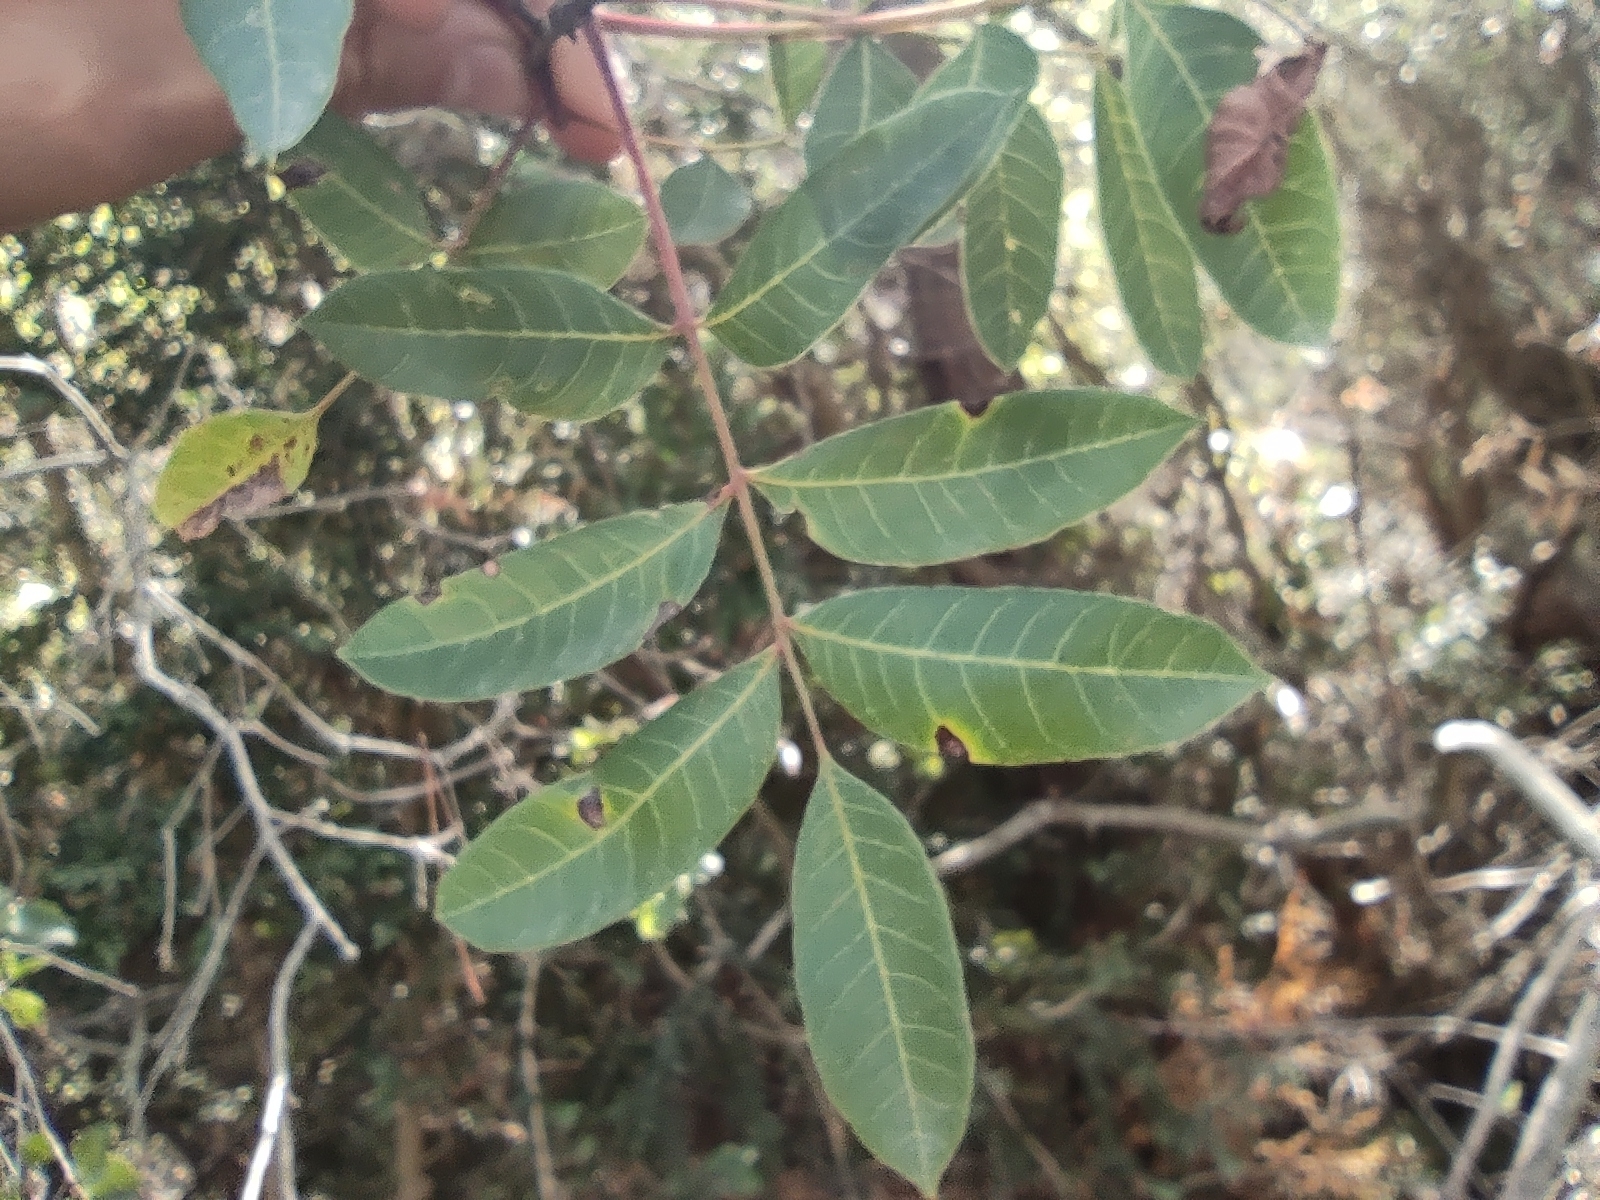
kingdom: Plantae
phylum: Tracheophyta
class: Magnoliopsida
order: Sapindales
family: Anacardiaceae
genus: Pistacia
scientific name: Pistacia terebinthus
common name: Terebinth
